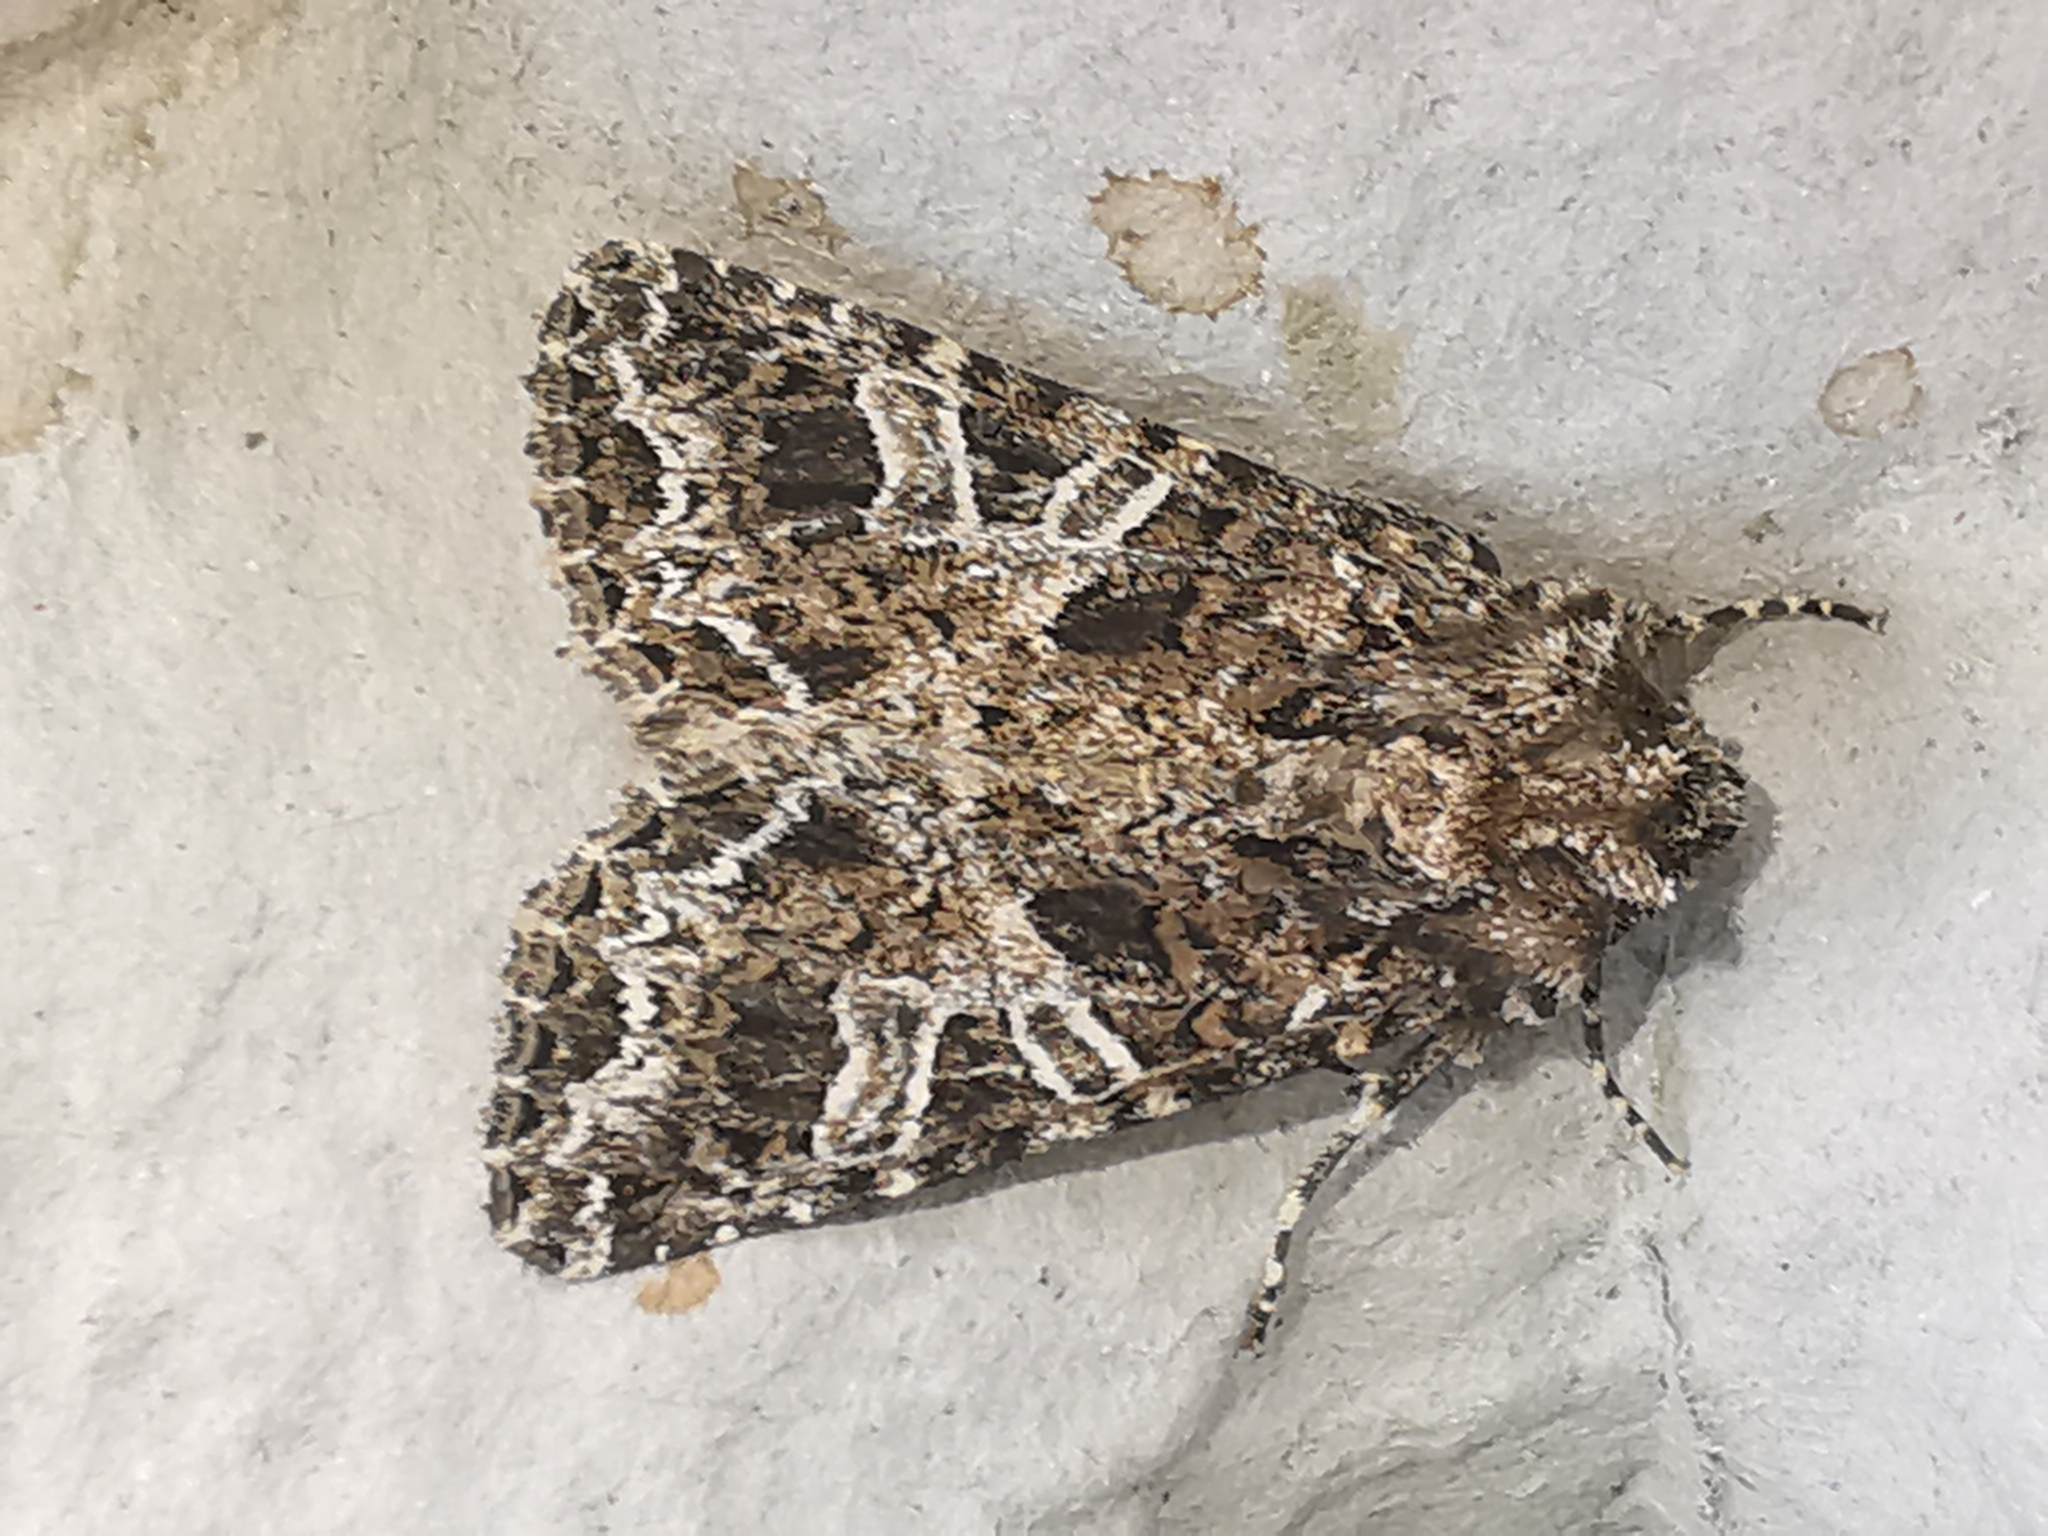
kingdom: Animalia
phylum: Arthropoda
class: Insecta
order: Lepidoptera
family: Noctuidae
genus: Hadena
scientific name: Hadena bicruris
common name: Lychnis
